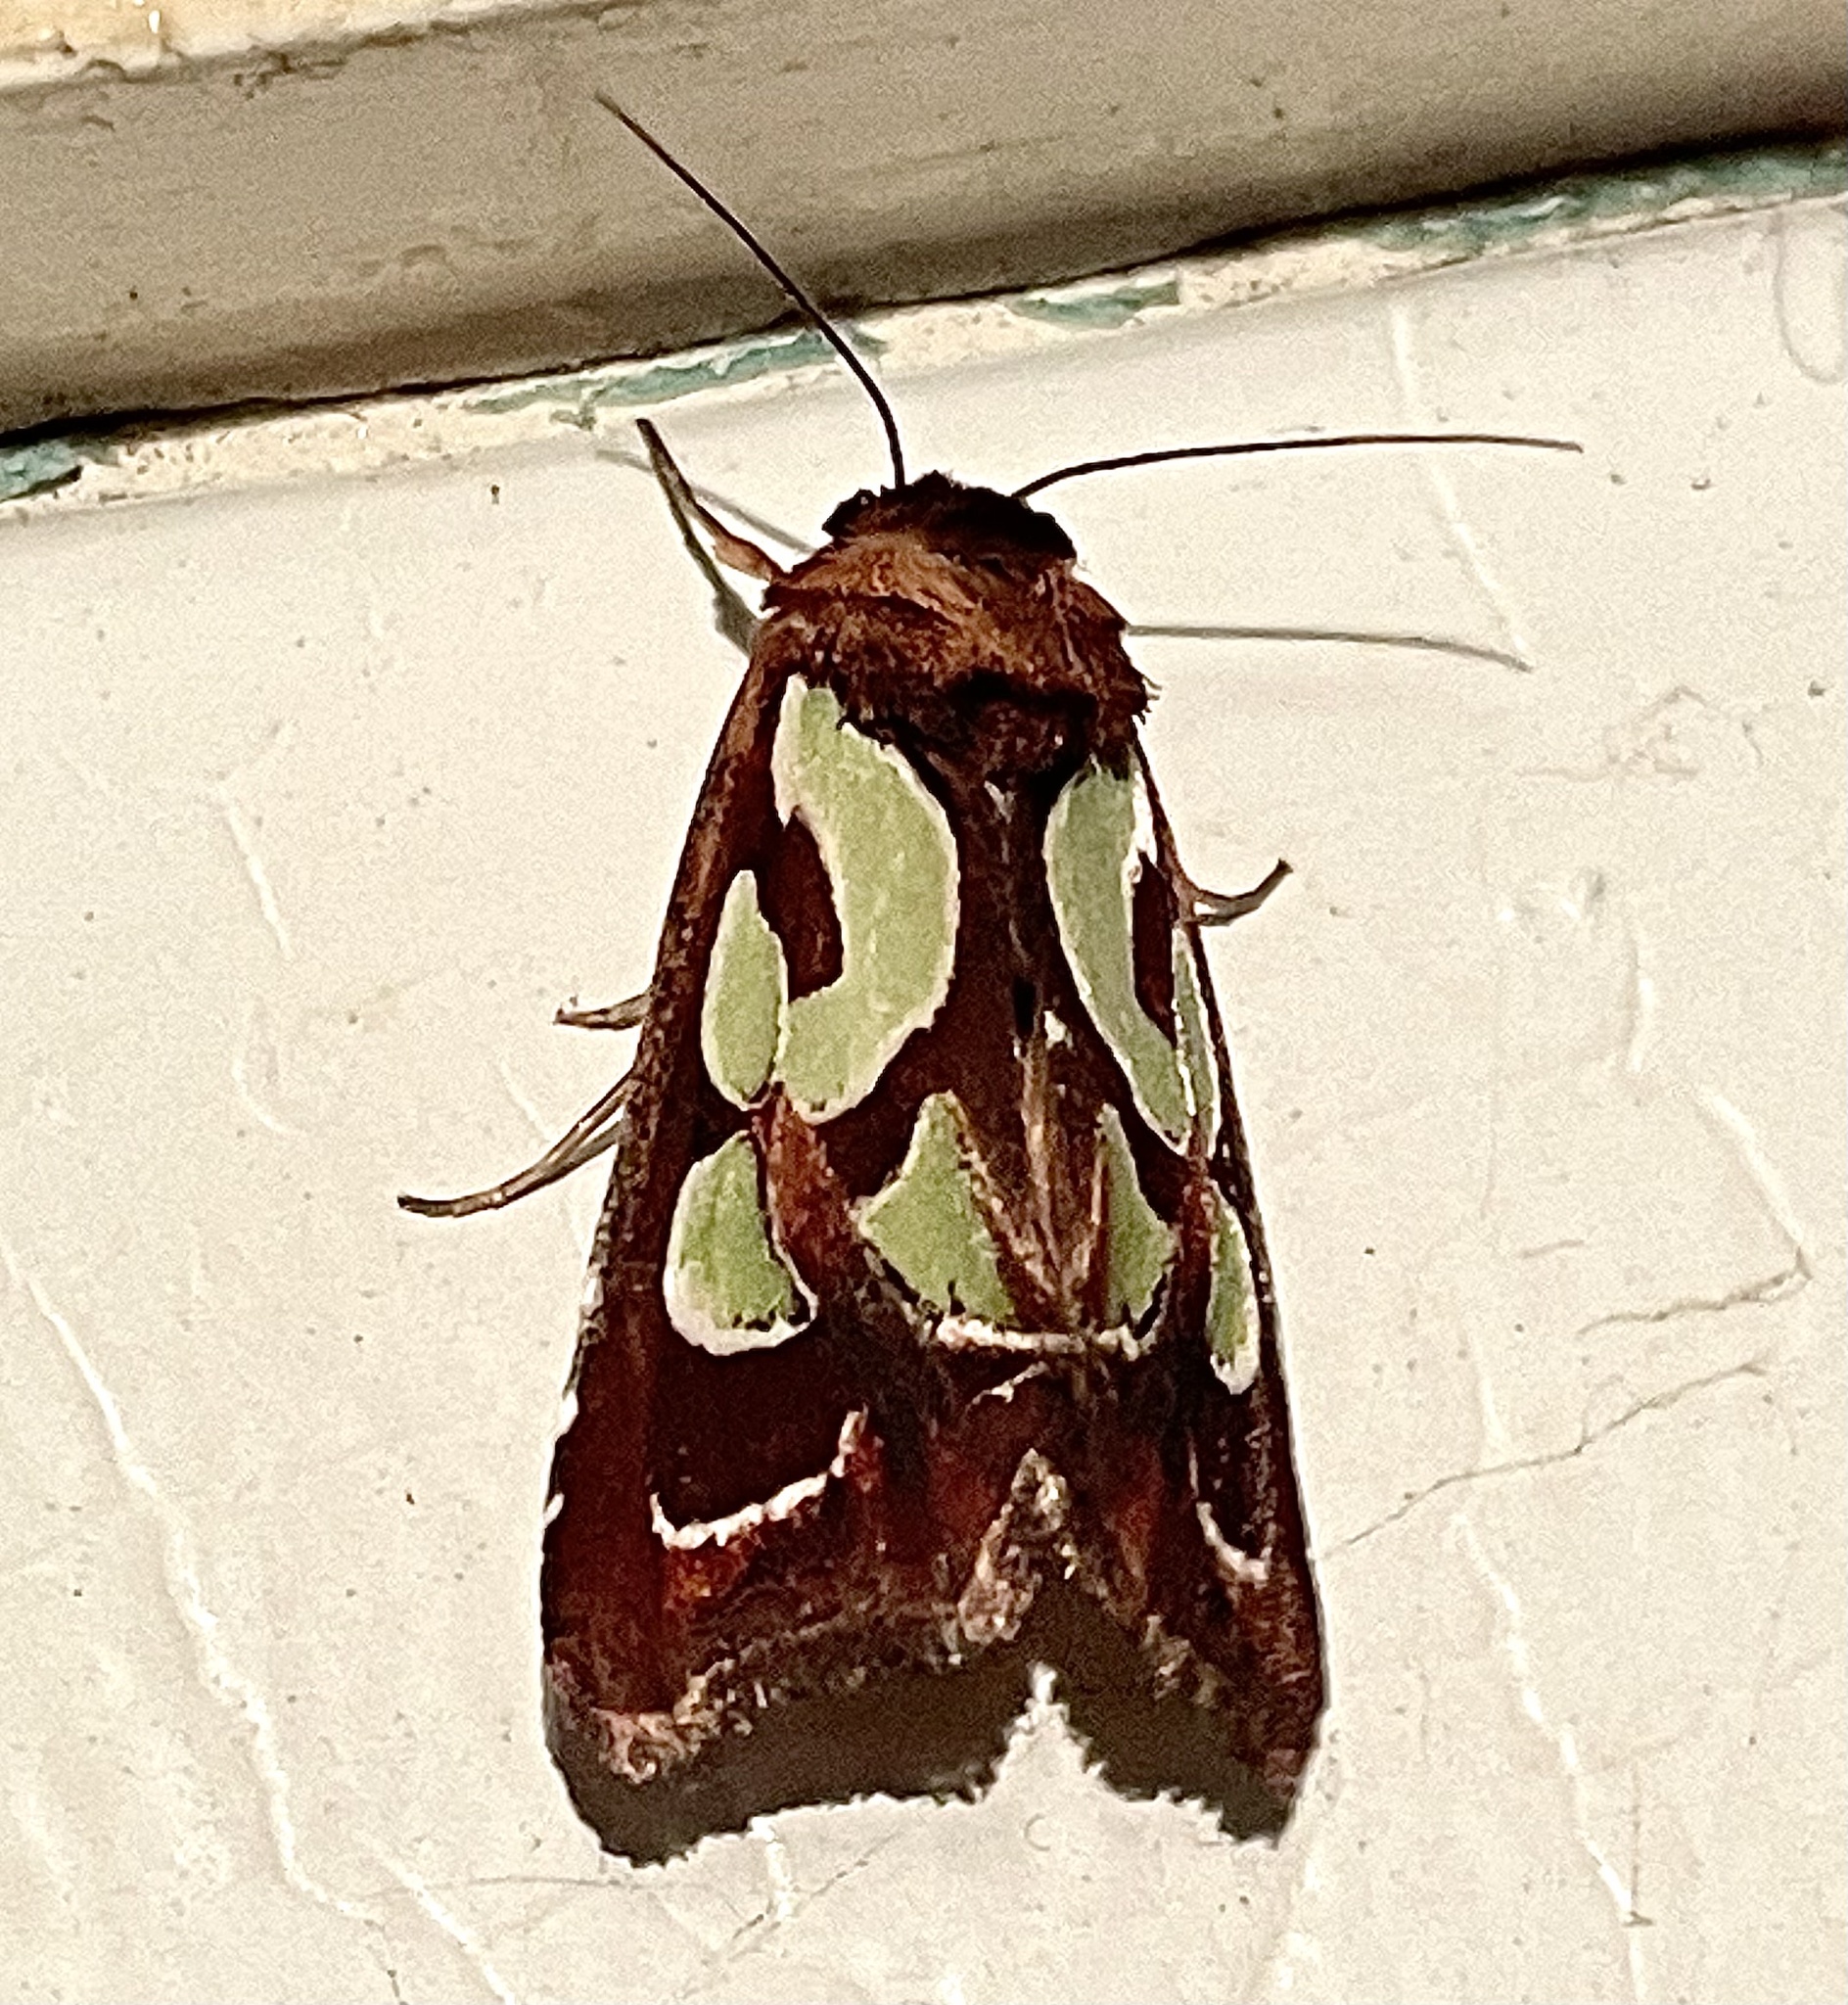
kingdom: Animalia
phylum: Arthropoda
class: Insecta
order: Lepidoptera
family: Noctuidae
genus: Cosmodes
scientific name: Cosmodes elegans
